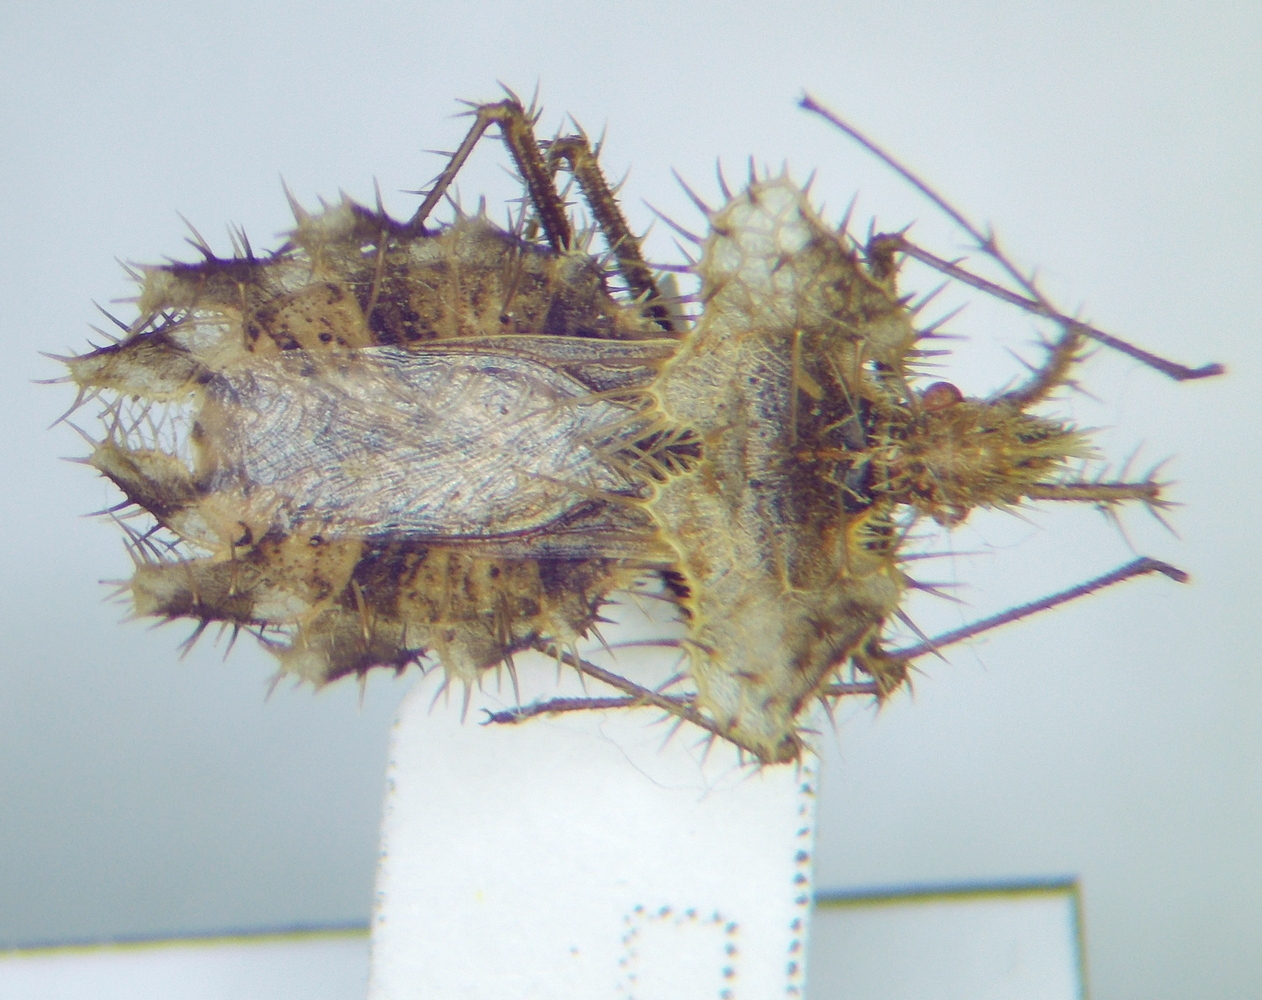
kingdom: Animalia
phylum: Arthropoda
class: Insecta
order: Hemiptera
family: Coreidae
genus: Phyllomorpha
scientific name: Phyllomorpha laciniata
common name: Golden egg bug
